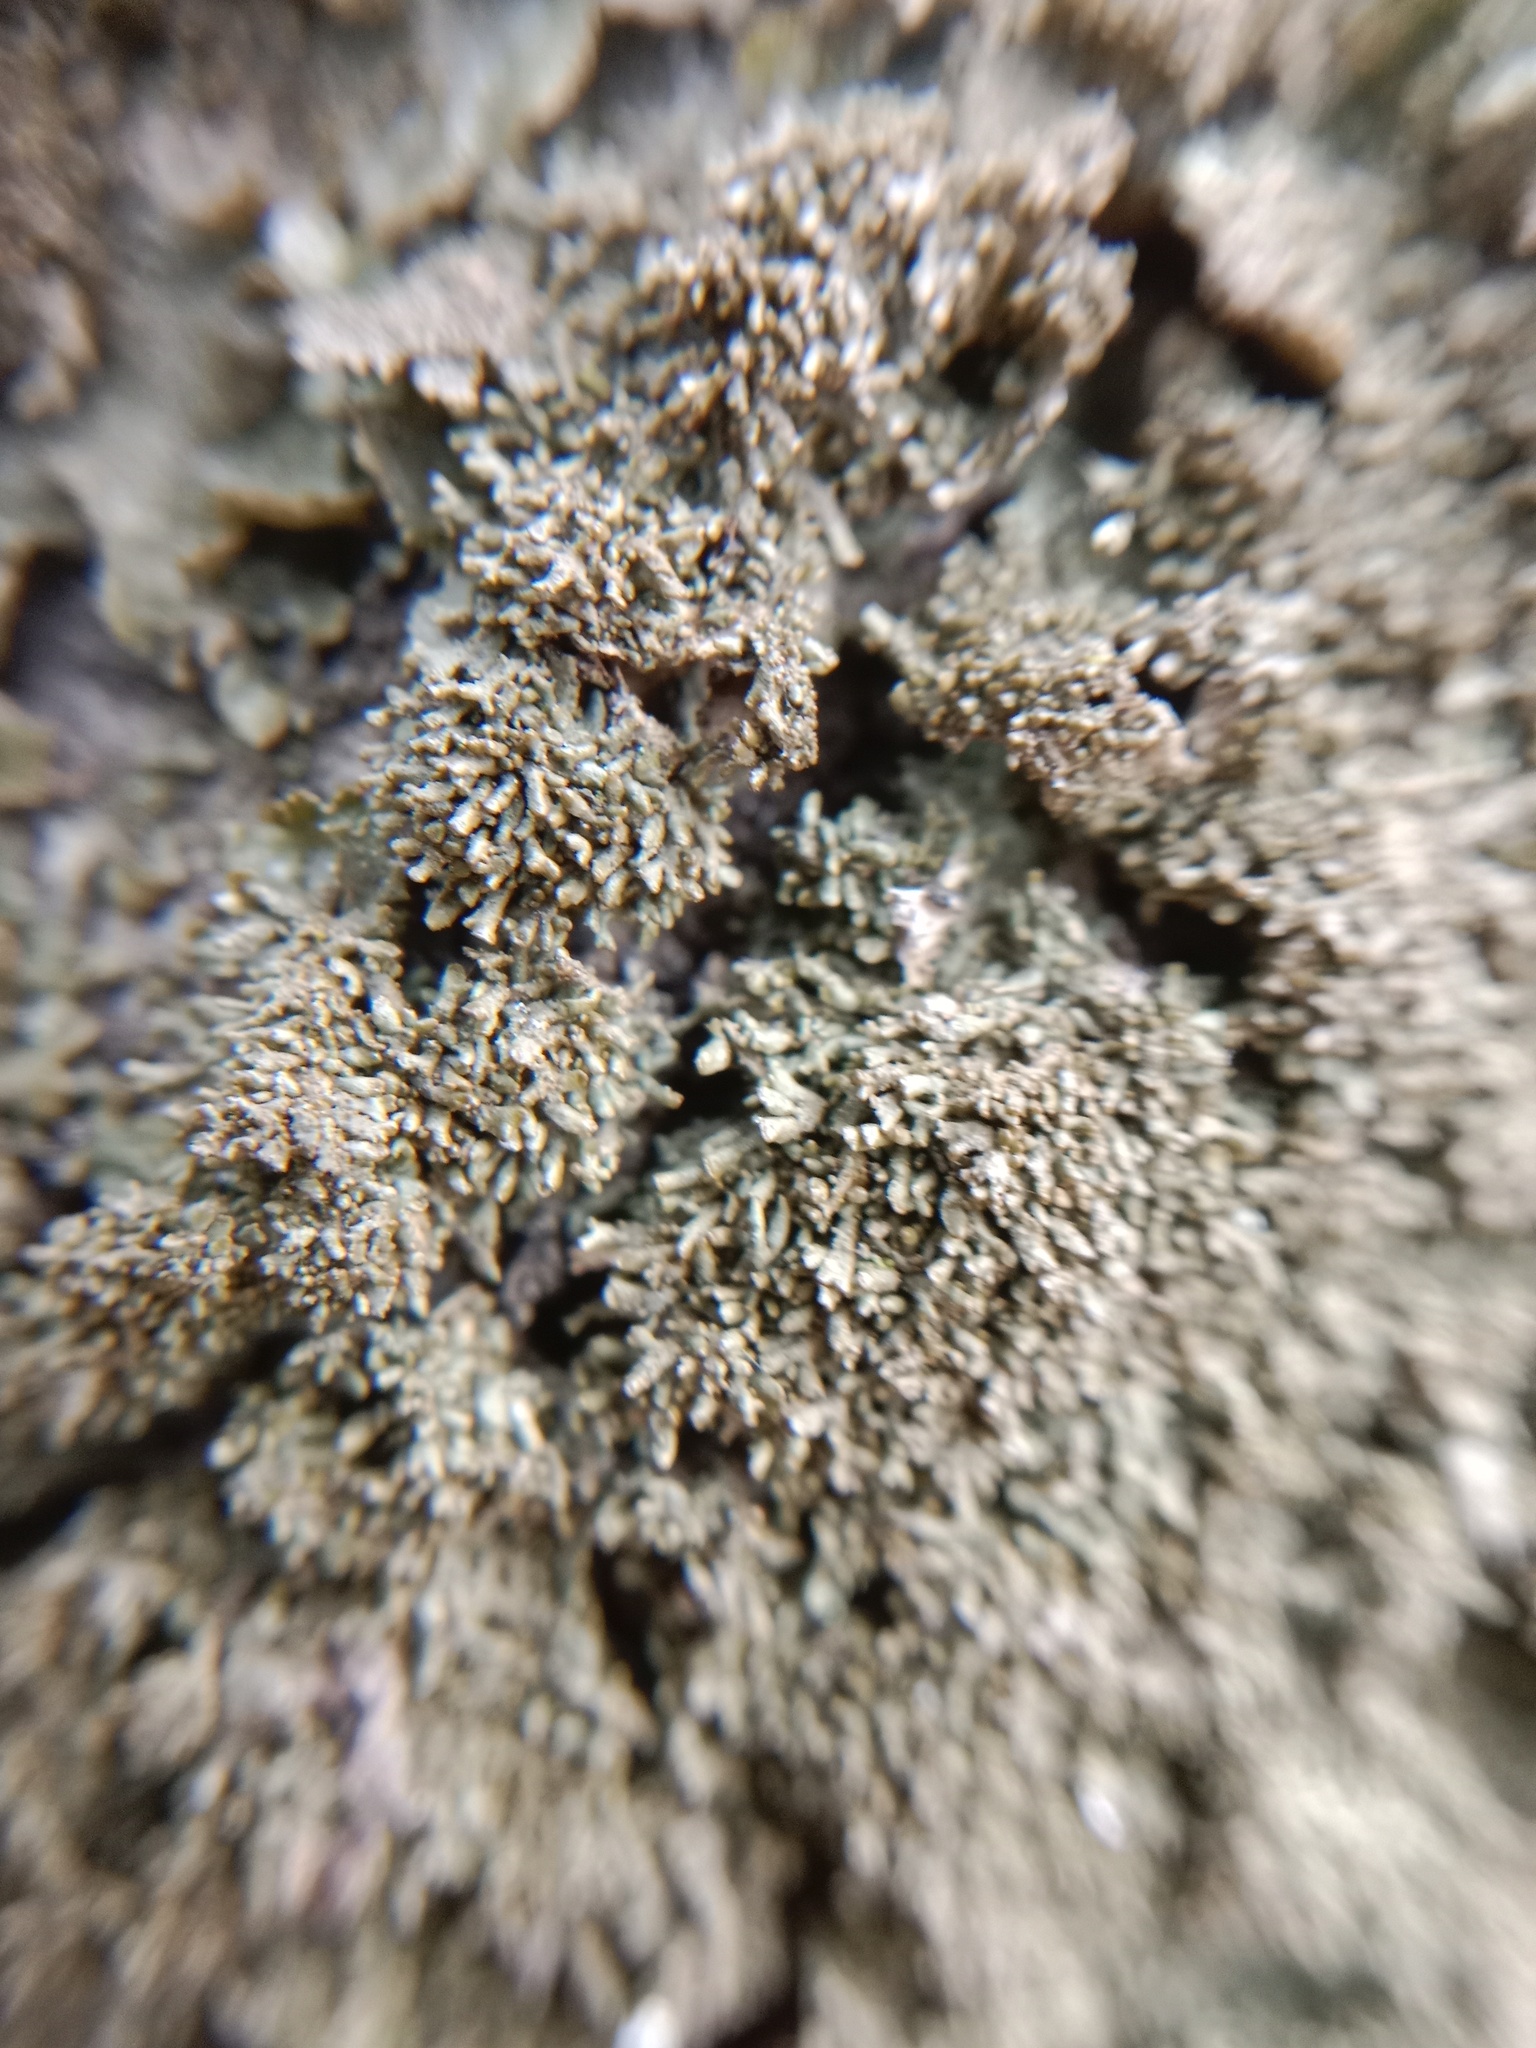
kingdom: Fungi
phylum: Ascomycota
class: Lecanoromycetes
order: Lecanorales
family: Parmeliaceae
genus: Melanohalea
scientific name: Melanohalea exasperatula
